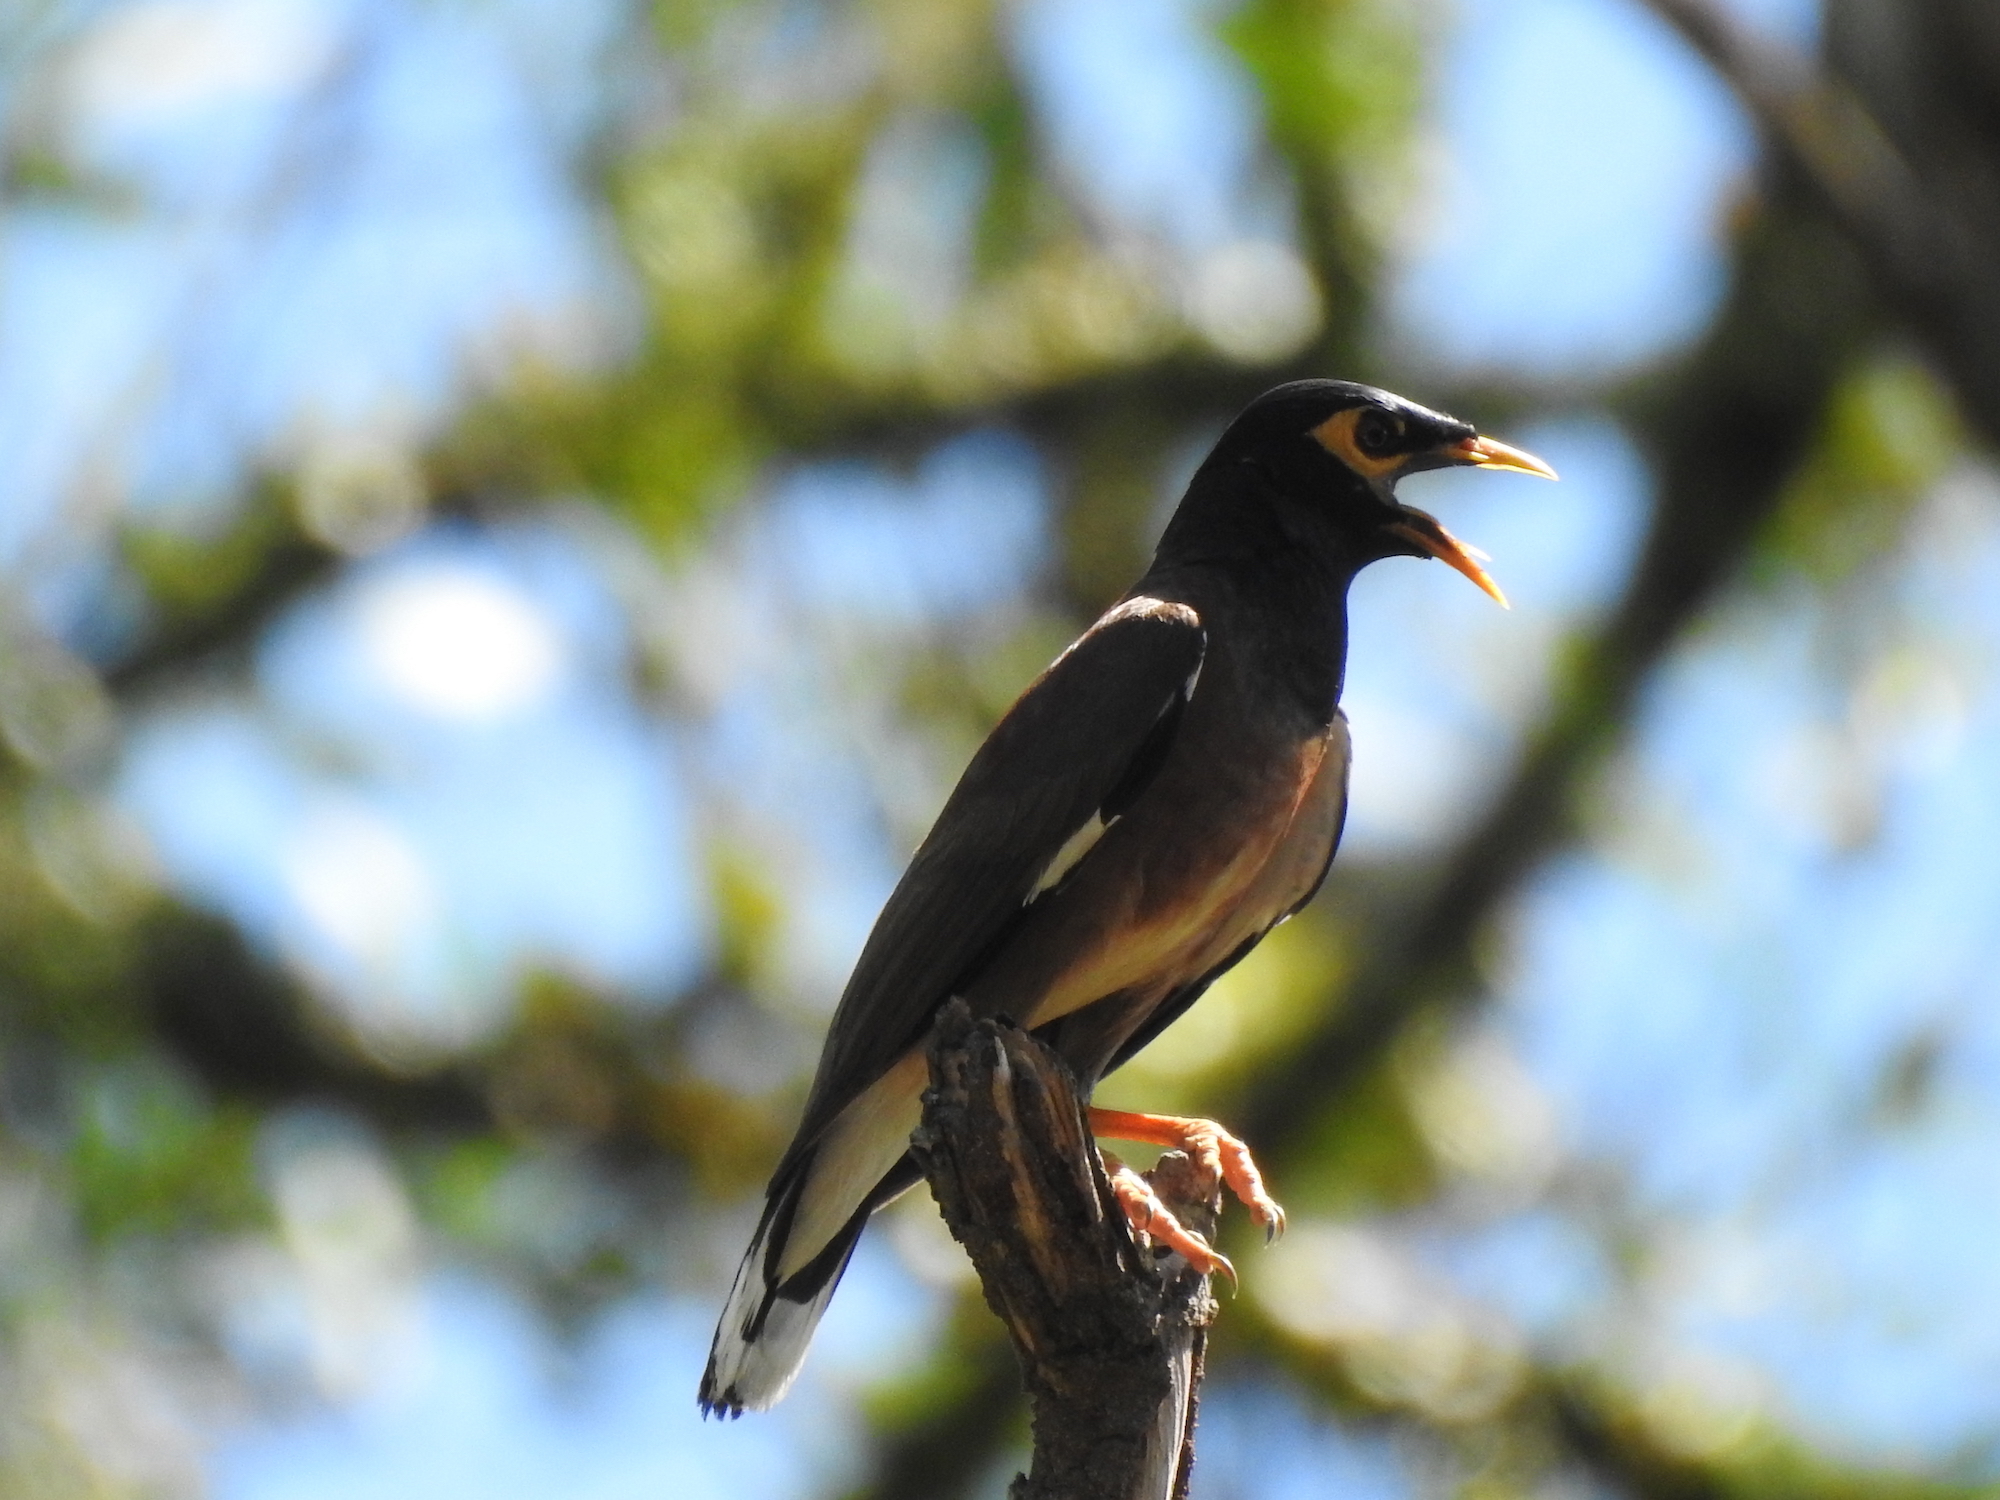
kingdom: Animalia
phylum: Chordata
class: Aves
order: Passeriformes
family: Sturnidae
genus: Acridotheres
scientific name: Acridotheres tristis
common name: Common myna
